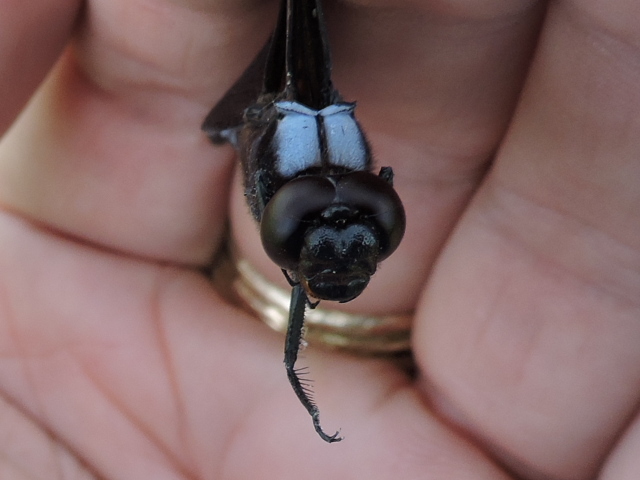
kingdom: Animalia
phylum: Arthropoda
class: Insecta
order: Odonata
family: Libellulidae
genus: Libellula
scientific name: Libellula luctuosa
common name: Widow skimmer
